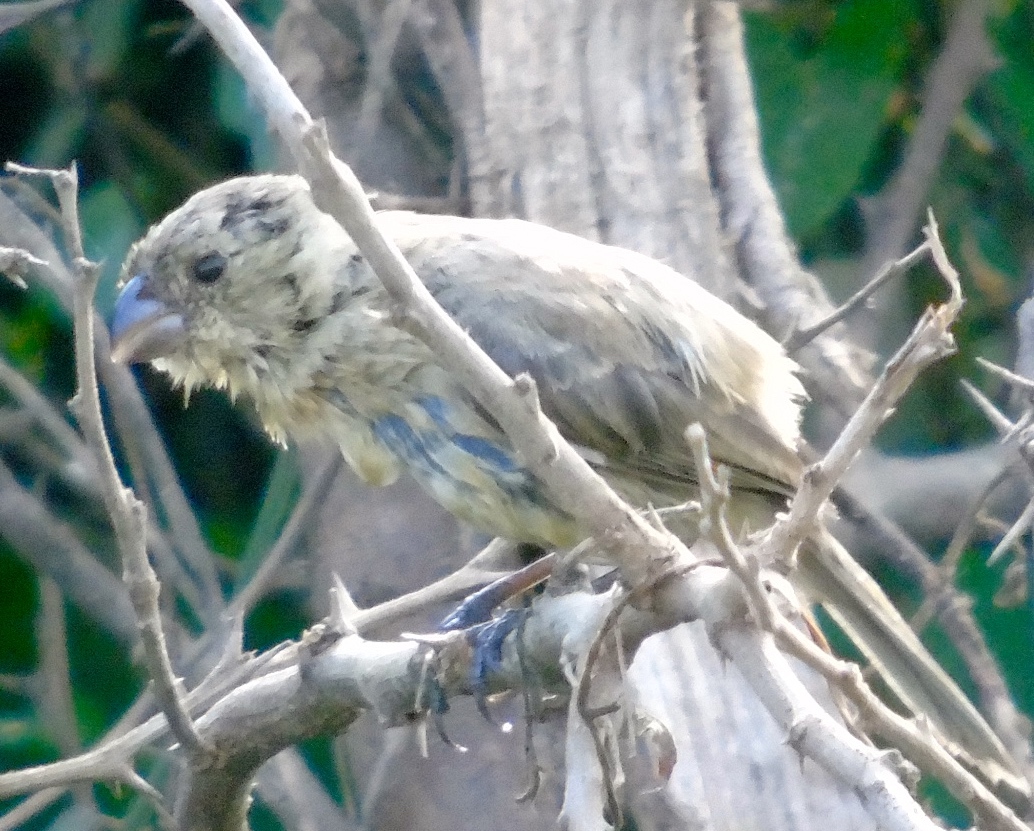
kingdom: Animalia
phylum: Chordata
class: Aves
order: Passeriformes
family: Thraupidae
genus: Sporophila
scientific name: Sporophila torqueola
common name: White-collared seedeater
